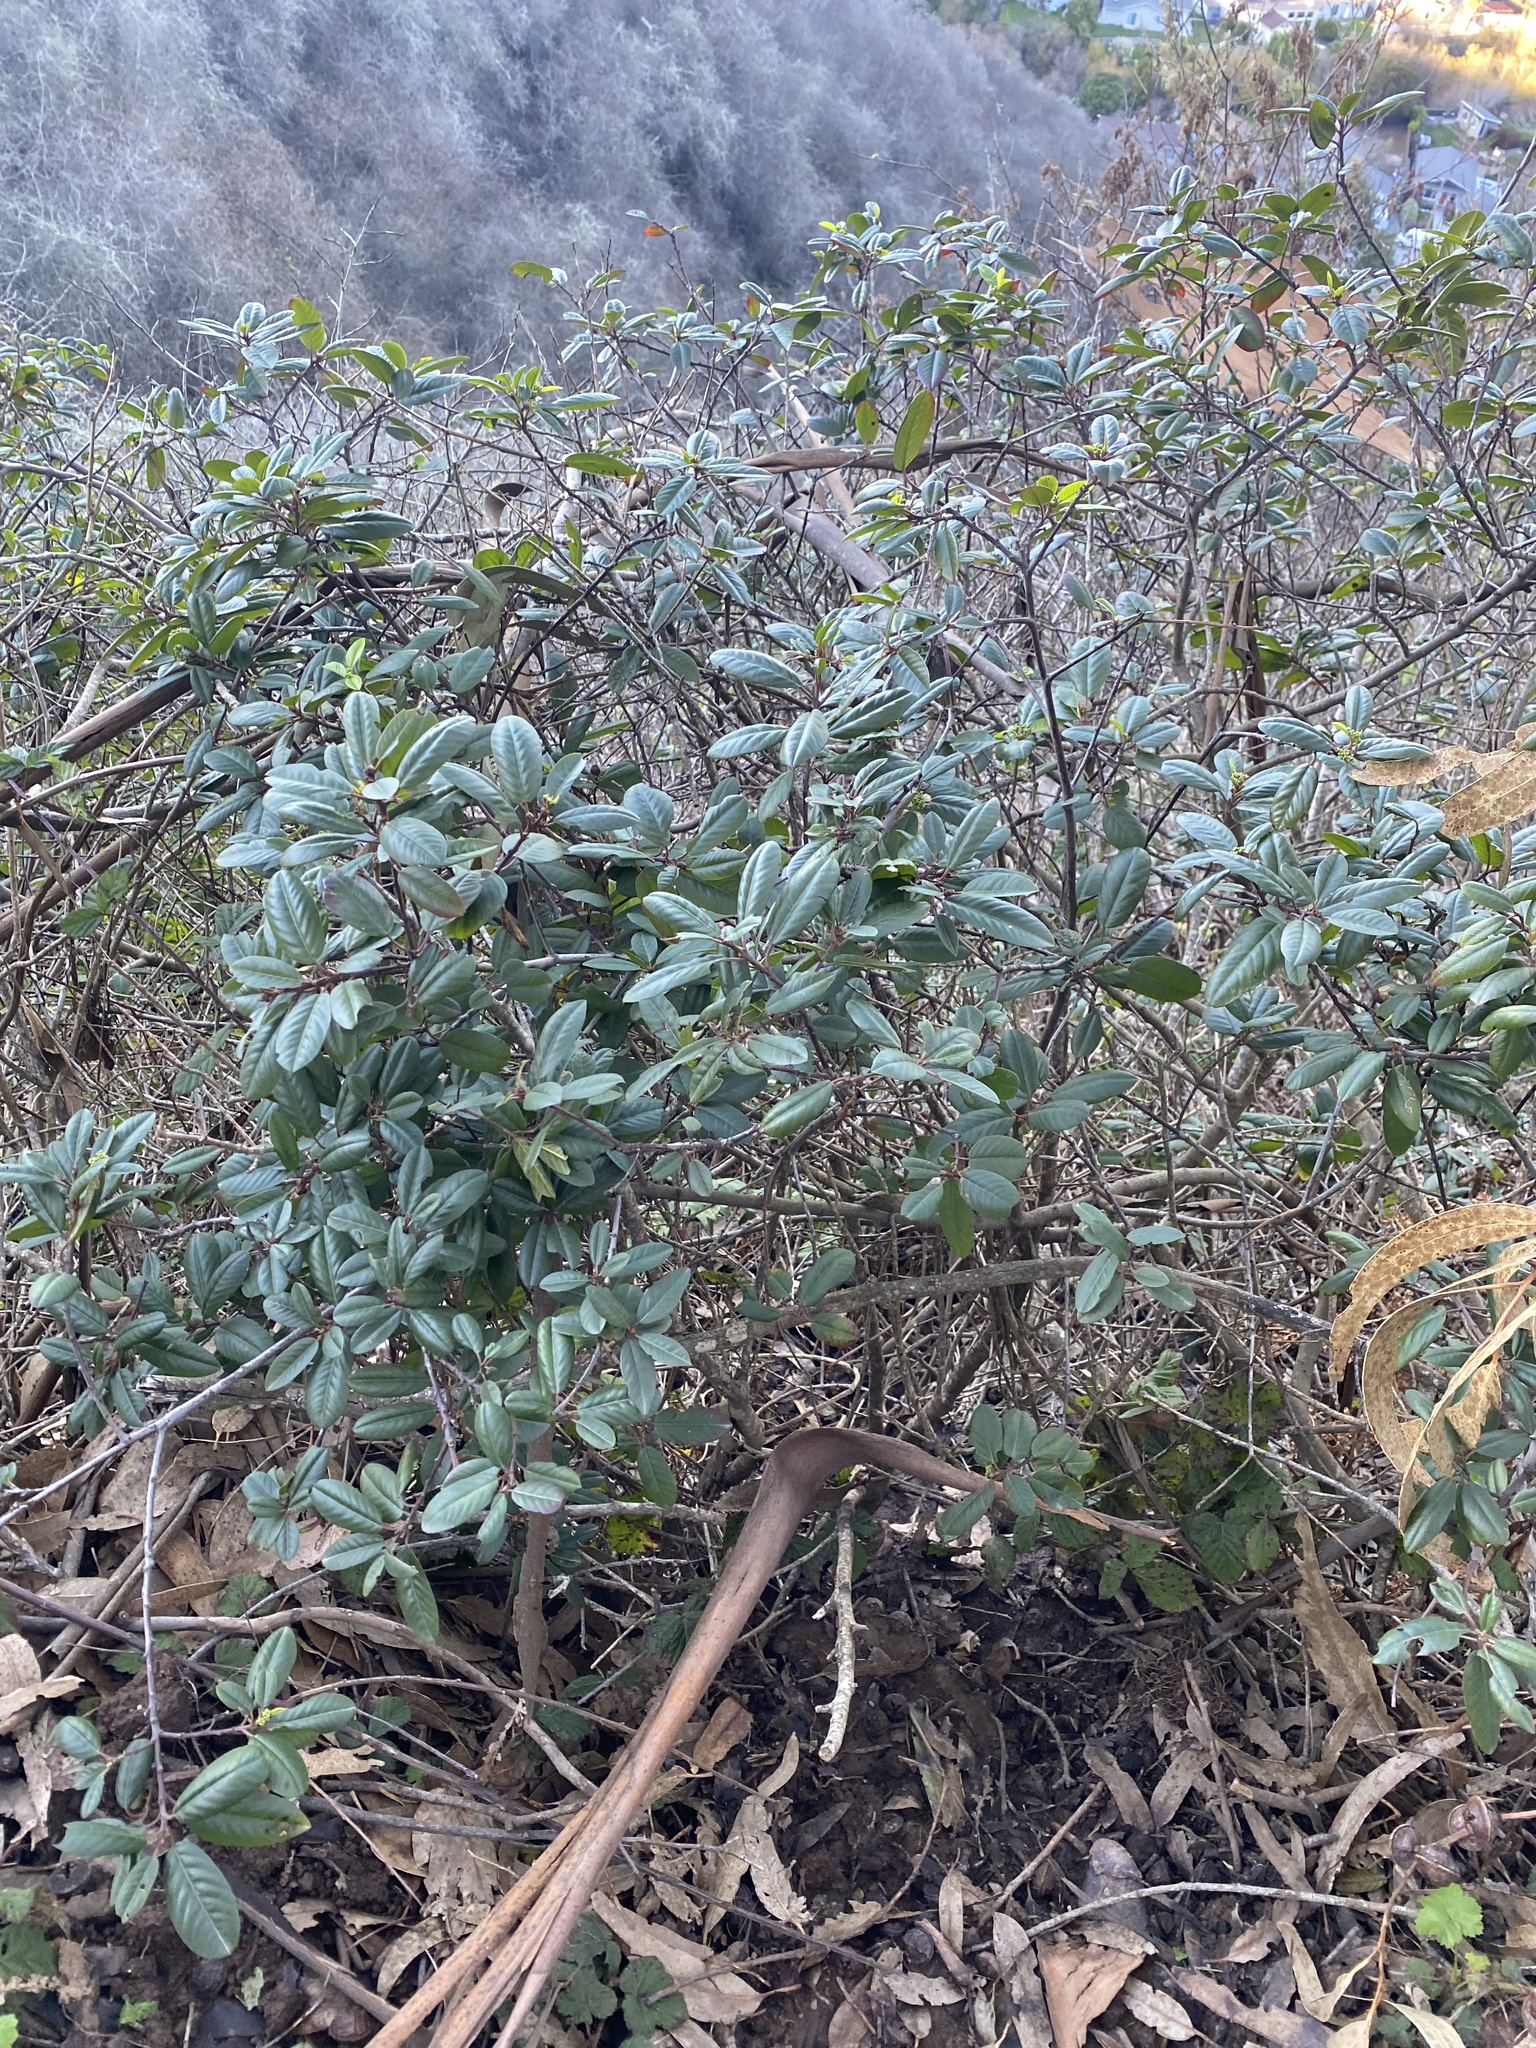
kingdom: Plantae
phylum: Tracheophyta
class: Magnoliopsida
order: Rosales
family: Rhamnaceae
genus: Frangula
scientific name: Frangula californica
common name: California buckthorn
